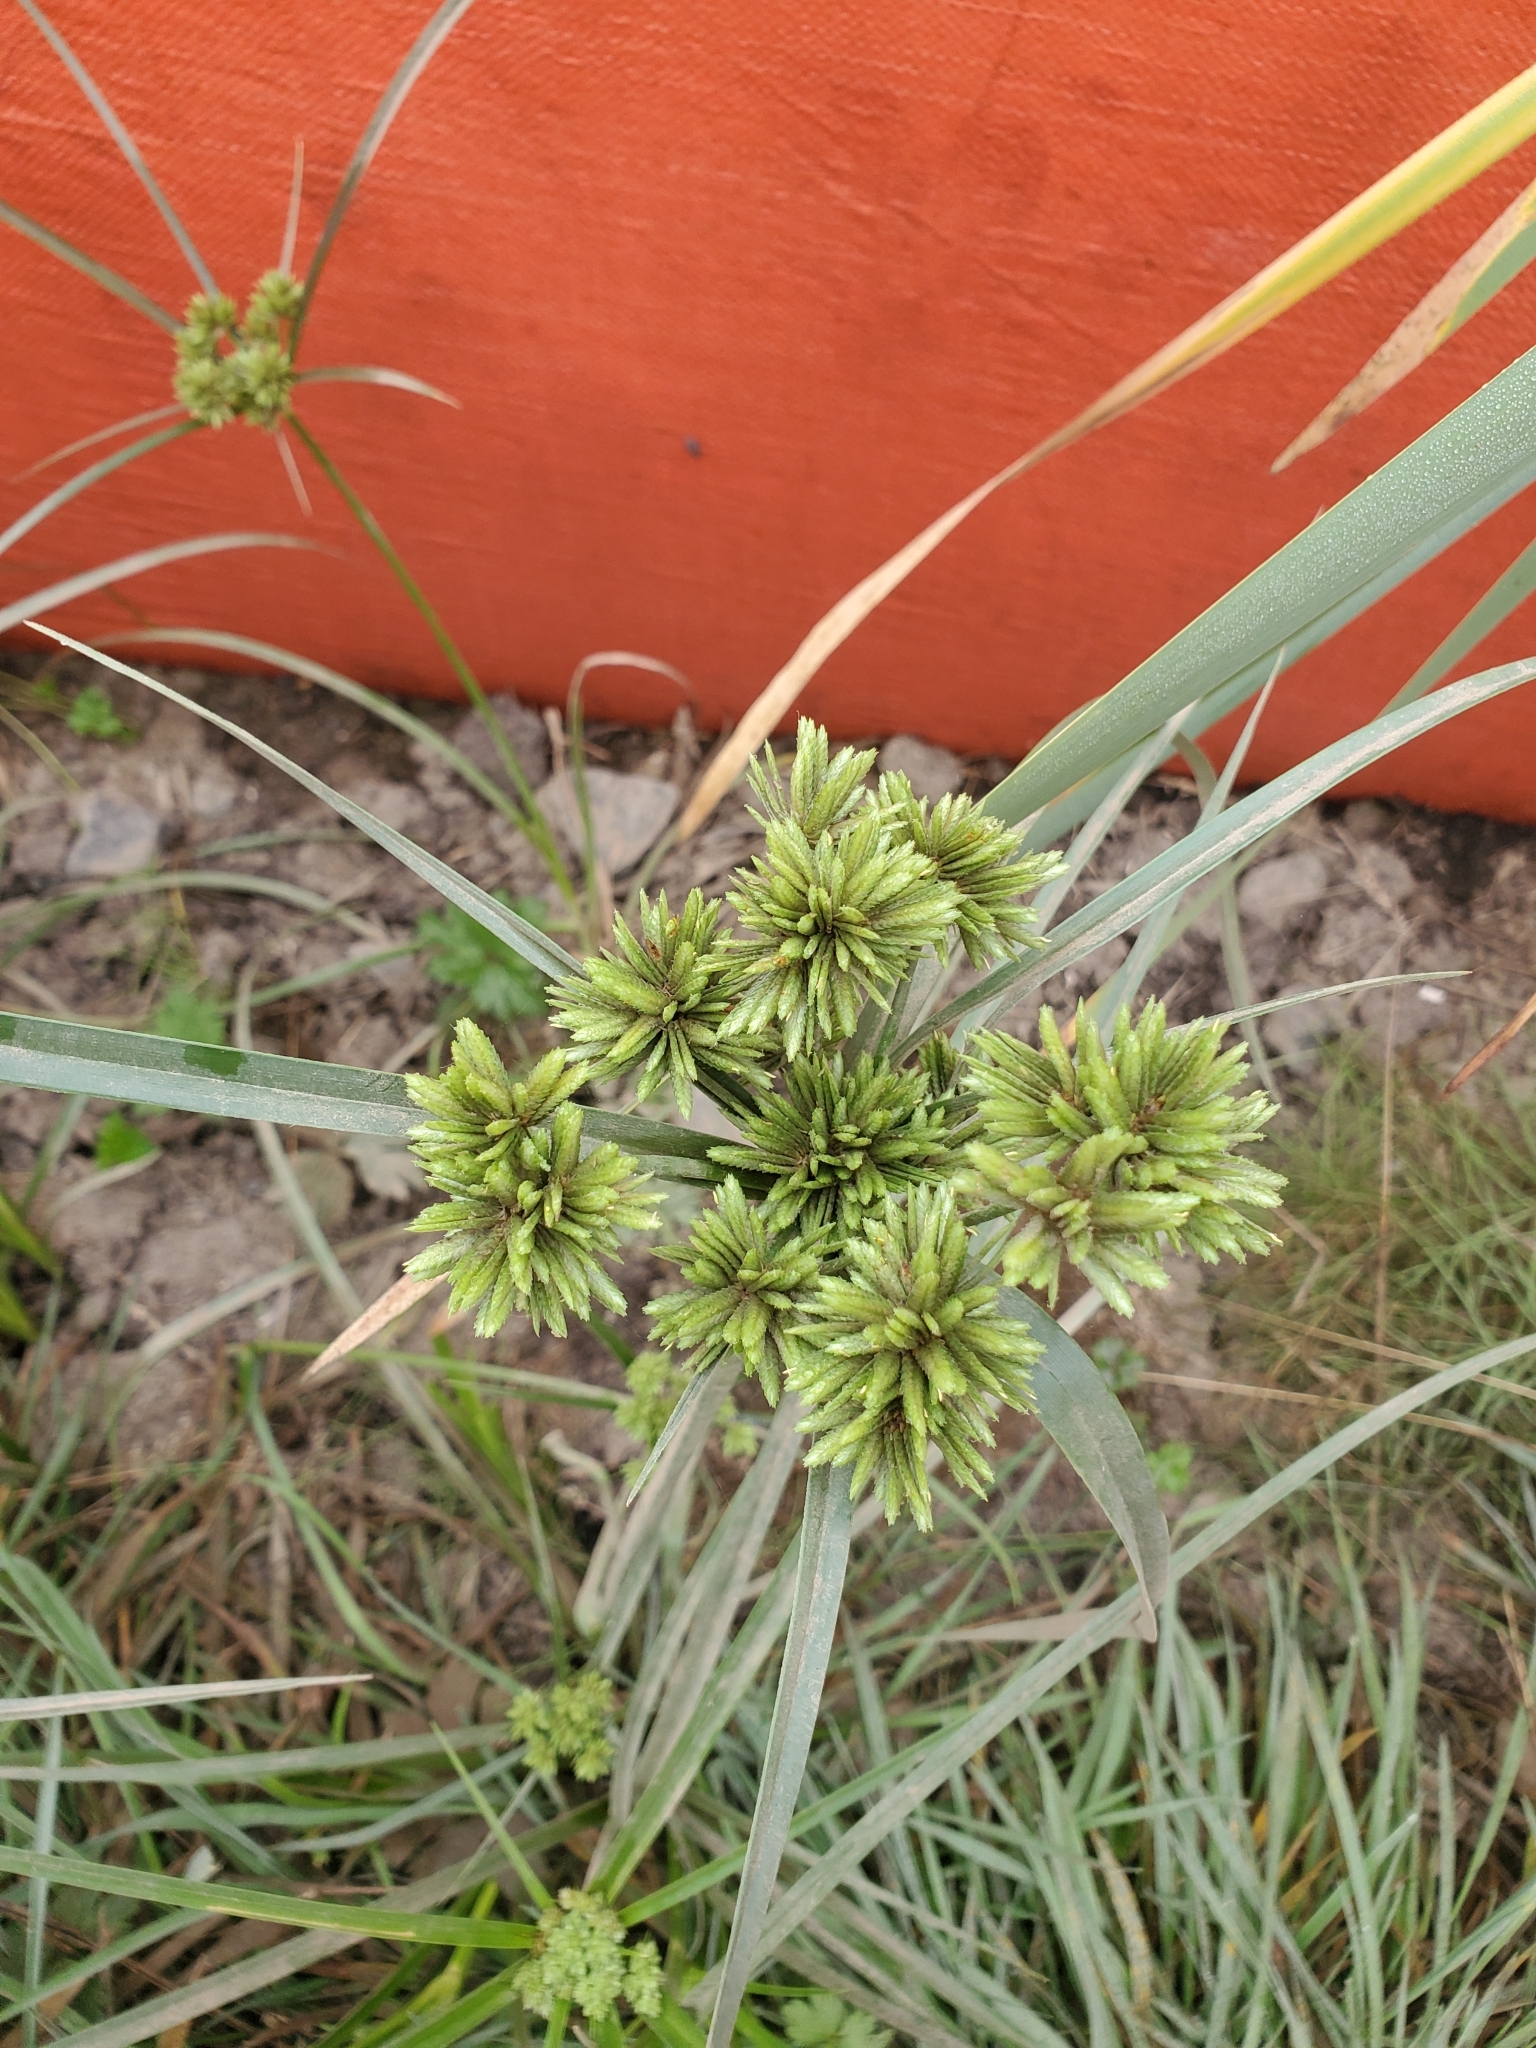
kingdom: Plantae
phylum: Tracheophyta
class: Liliopsida
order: Poales
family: Cyperaceae
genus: Cyperus
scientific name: Cyperus eragrostis
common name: Tall flatsedge
